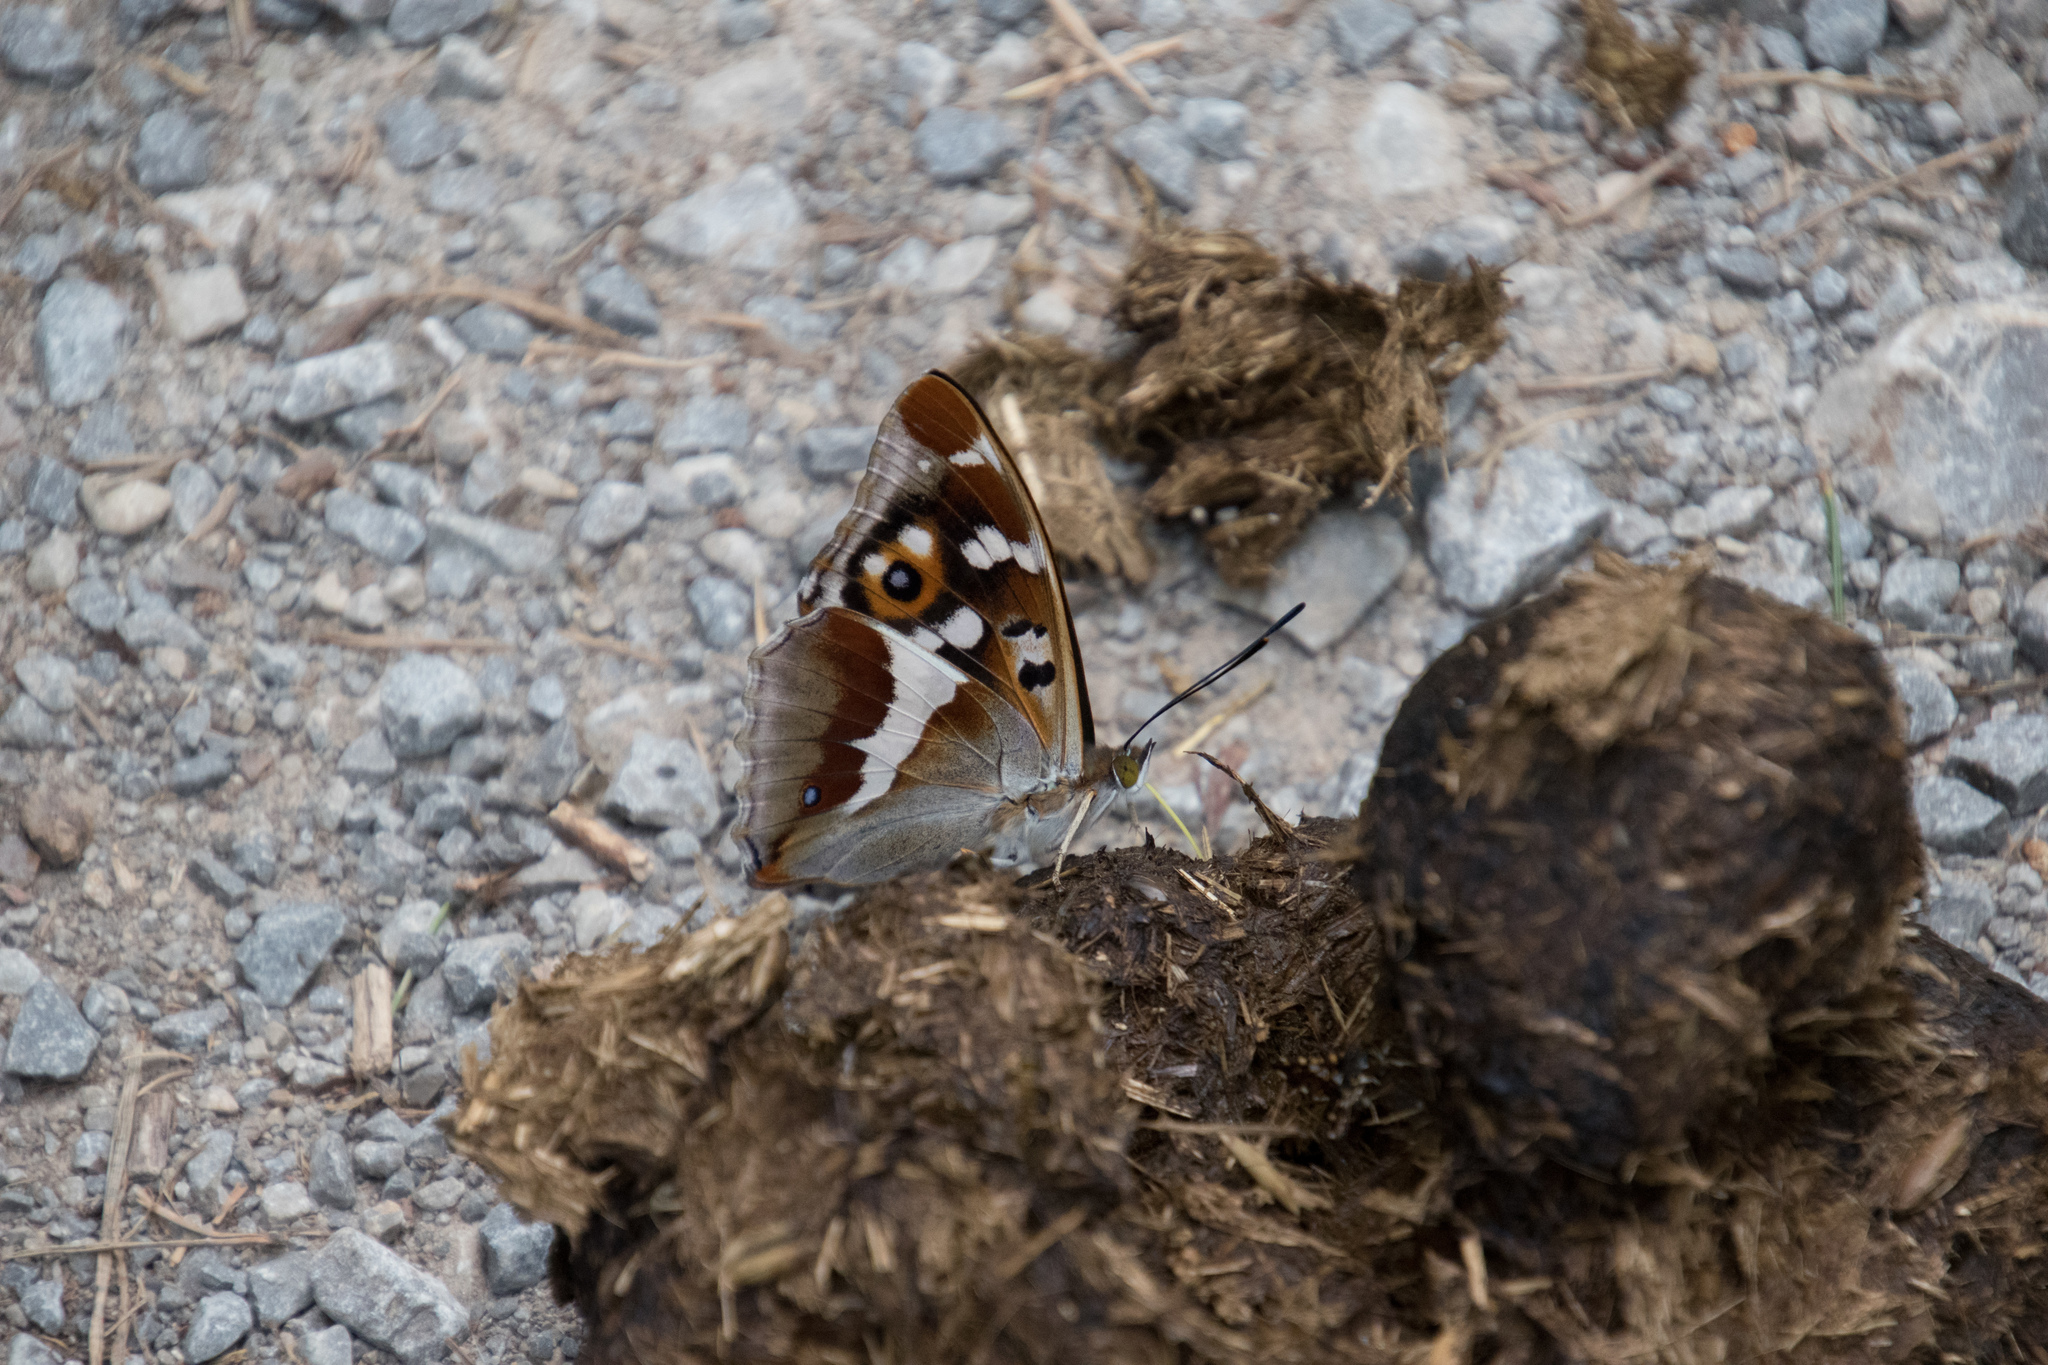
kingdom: Animalia
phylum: Arthropoda
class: Insecta
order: Lepidoptera
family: Nymphalidae
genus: Apatura
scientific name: Apatura iris
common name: Purple emperor
